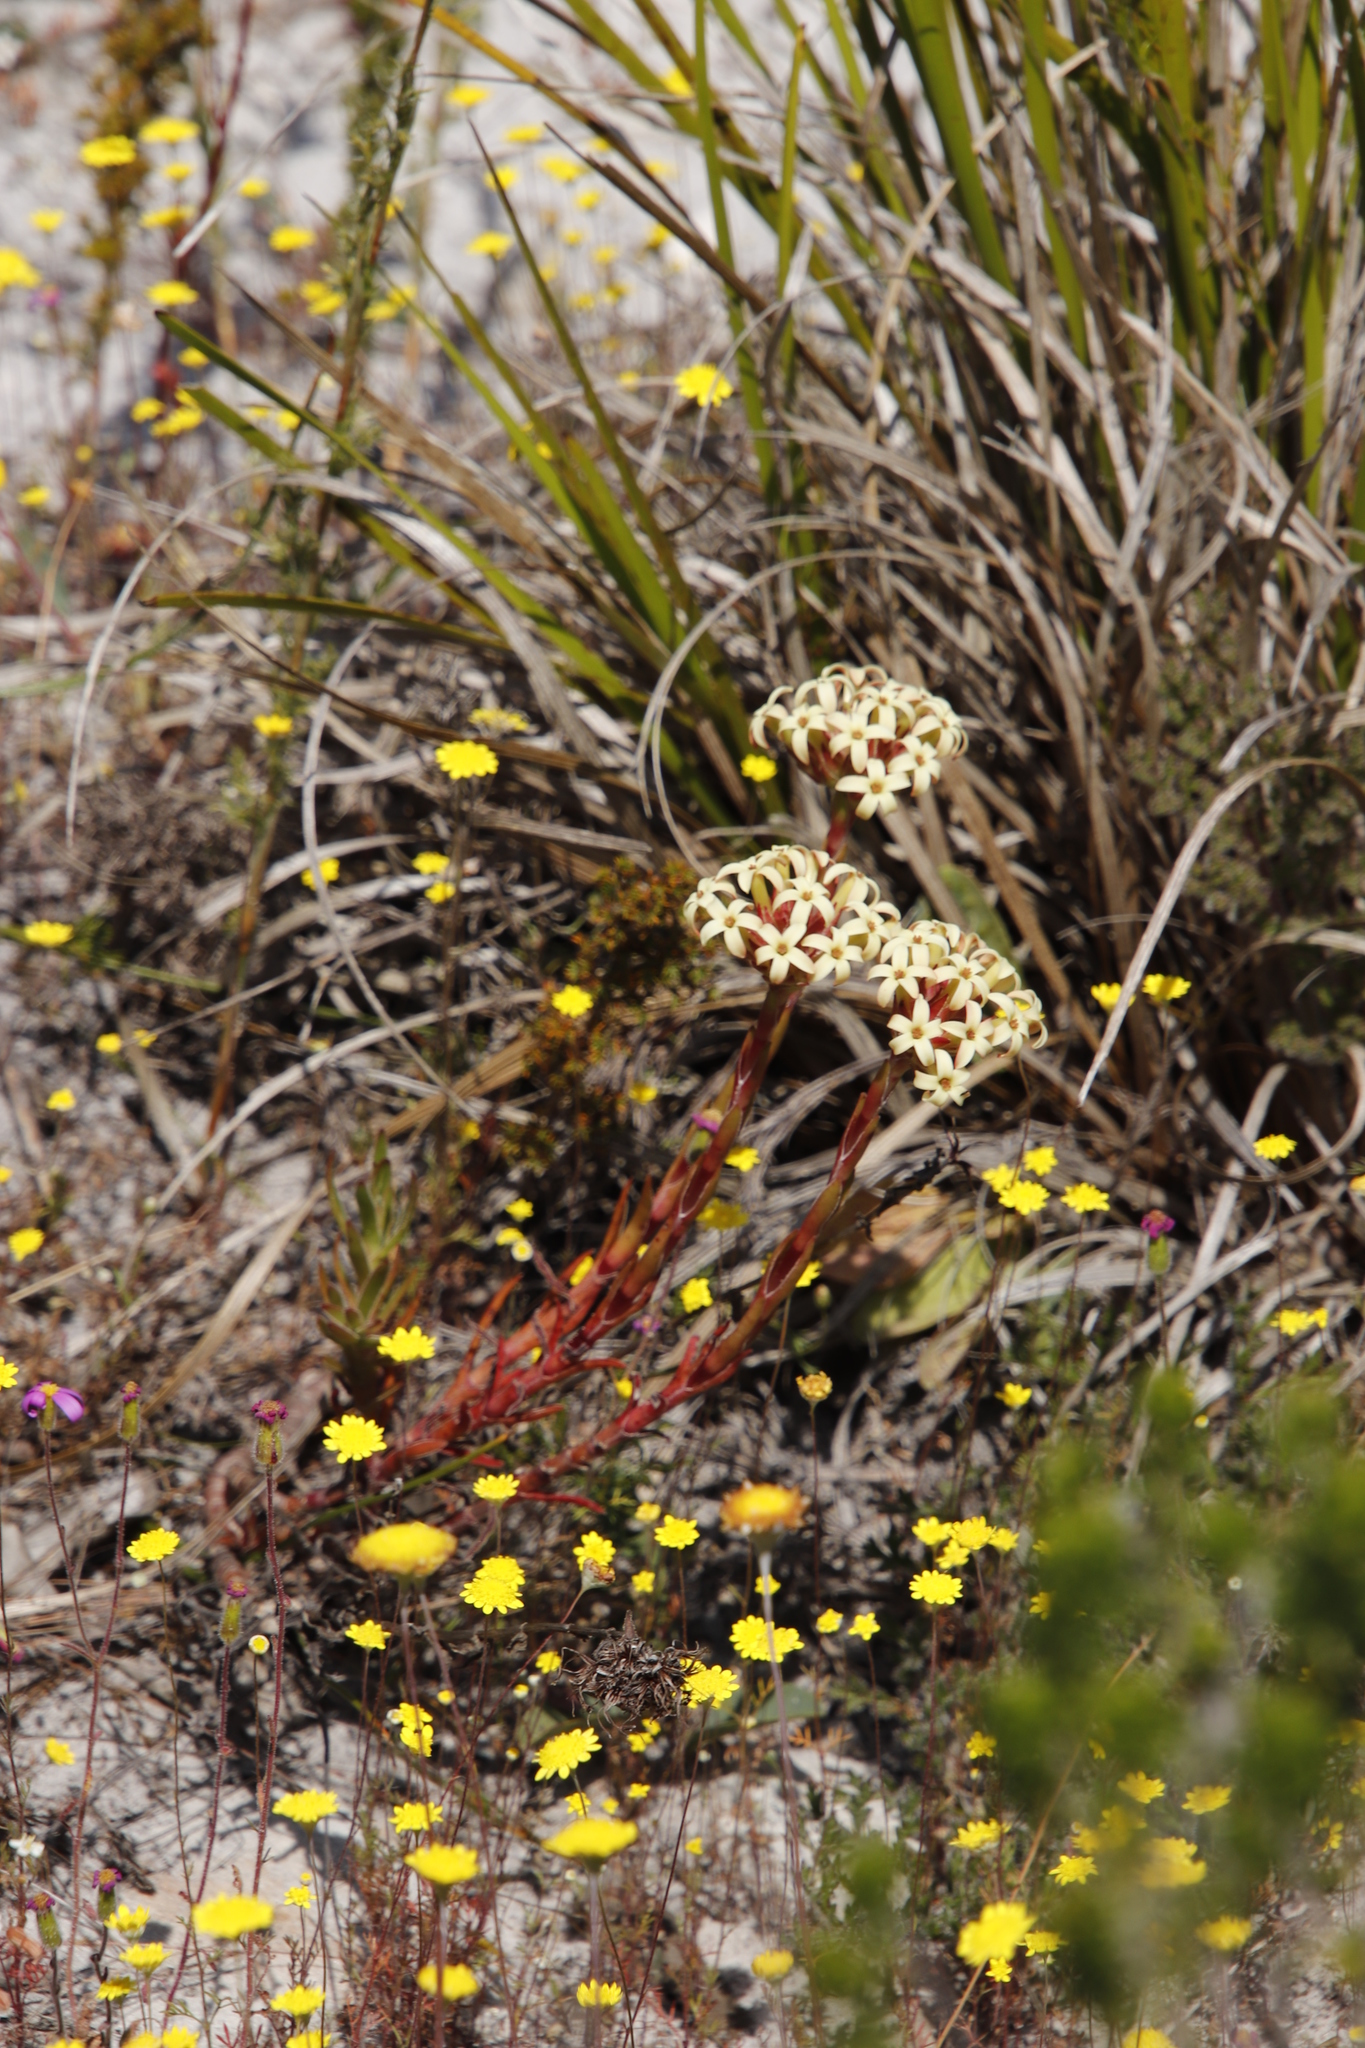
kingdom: Plantae
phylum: Tracheophyta
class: Magnoliopsida
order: Saxifragales
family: Crassulaceae
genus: Crassula
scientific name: Crassula fascicularis
